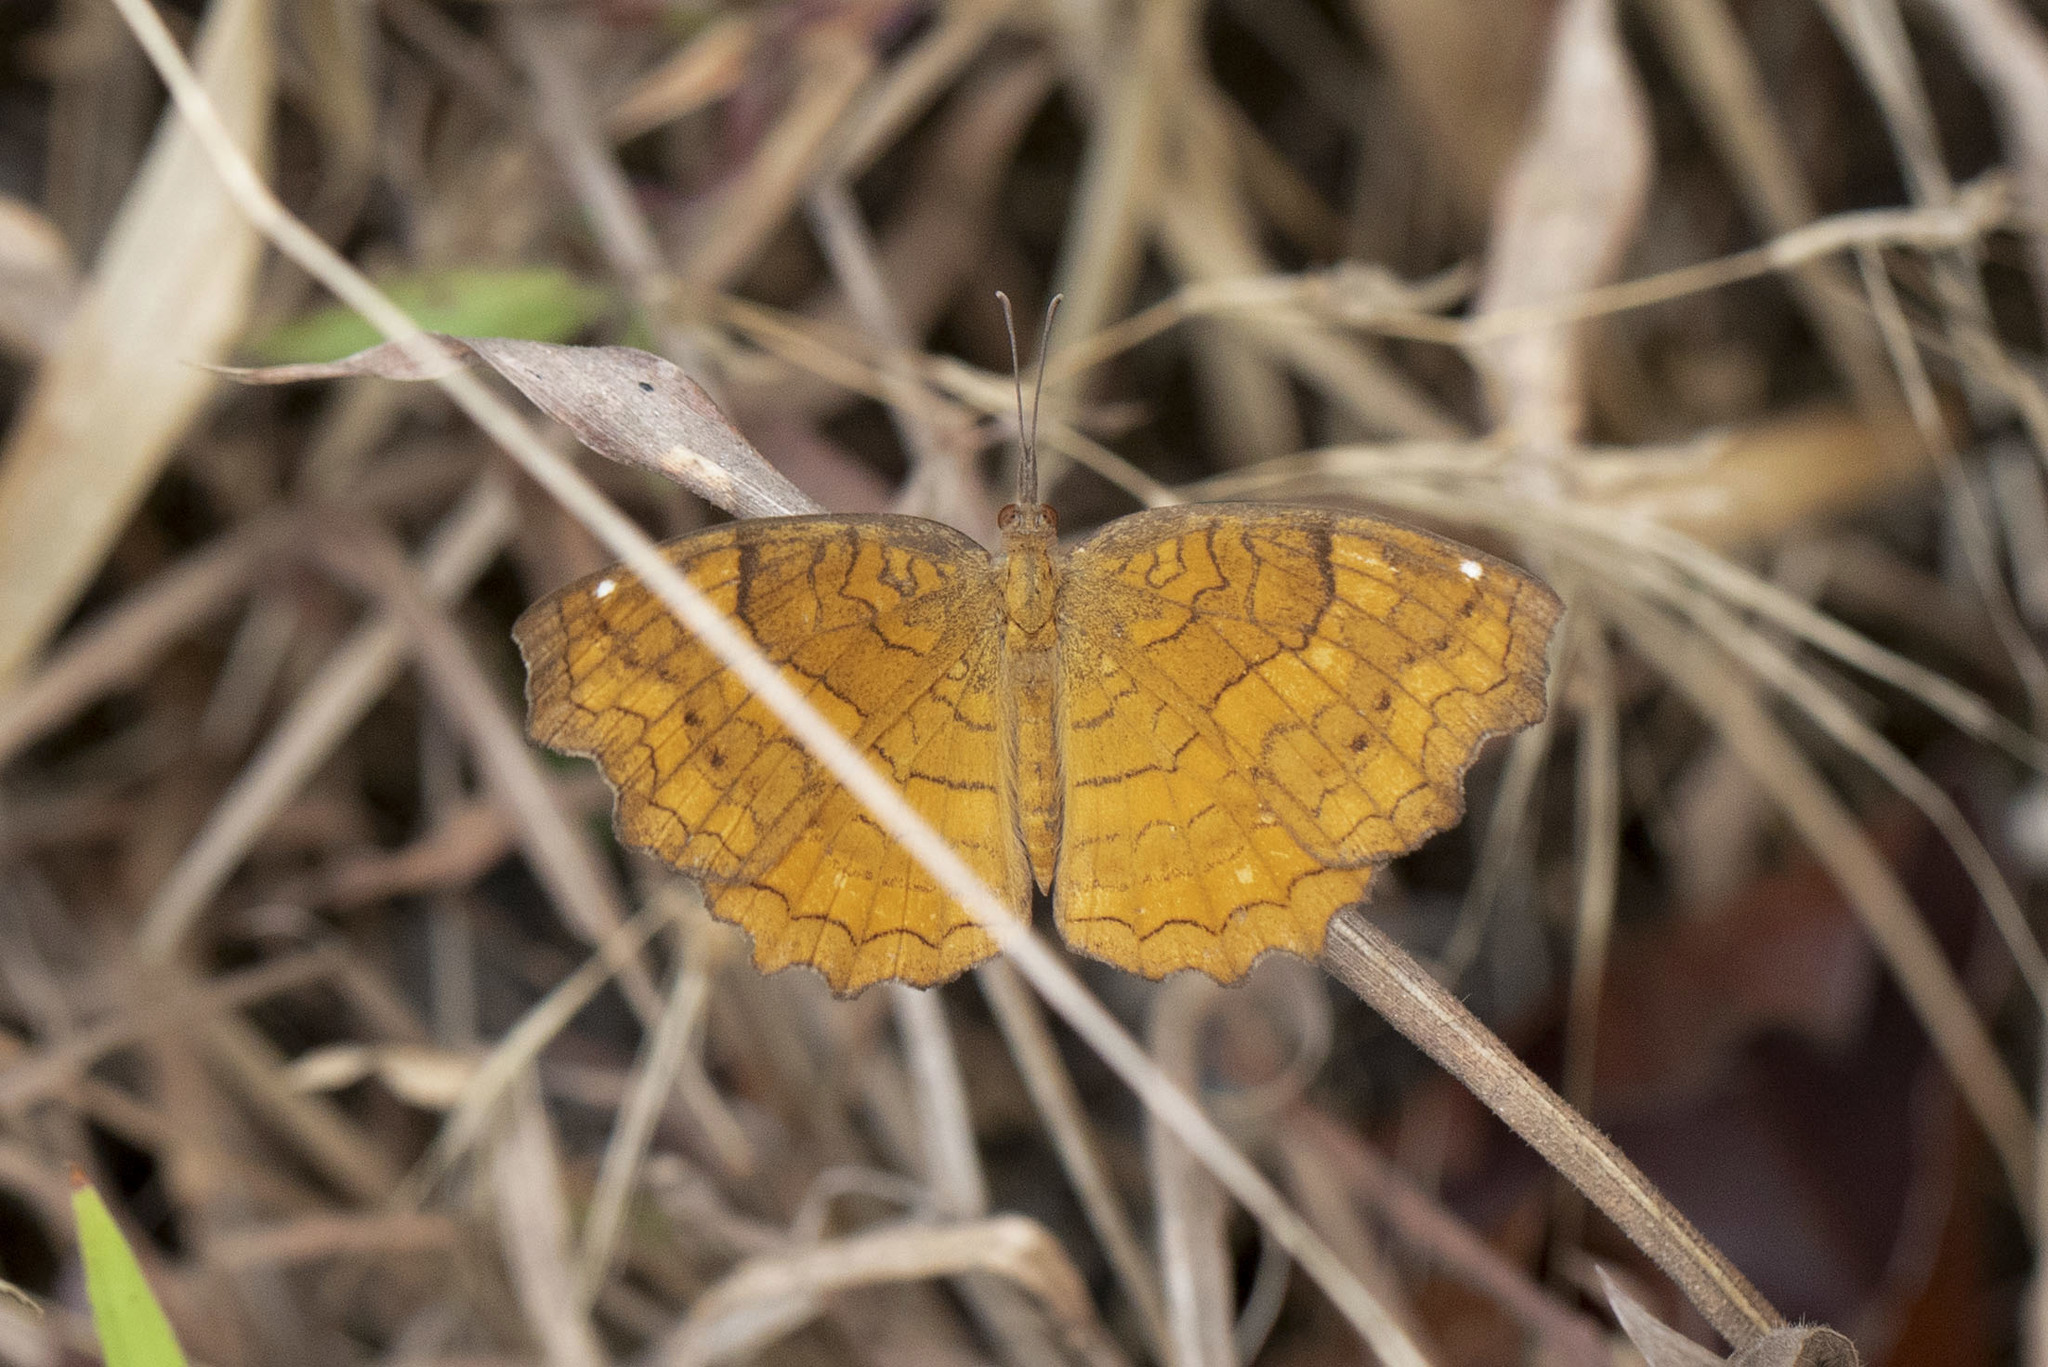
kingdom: Animalia
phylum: Arthropoda
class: Insecta
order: Lepidoptera
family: Nymphalidae
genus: Ariadne
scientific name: Ariadne ariadne
